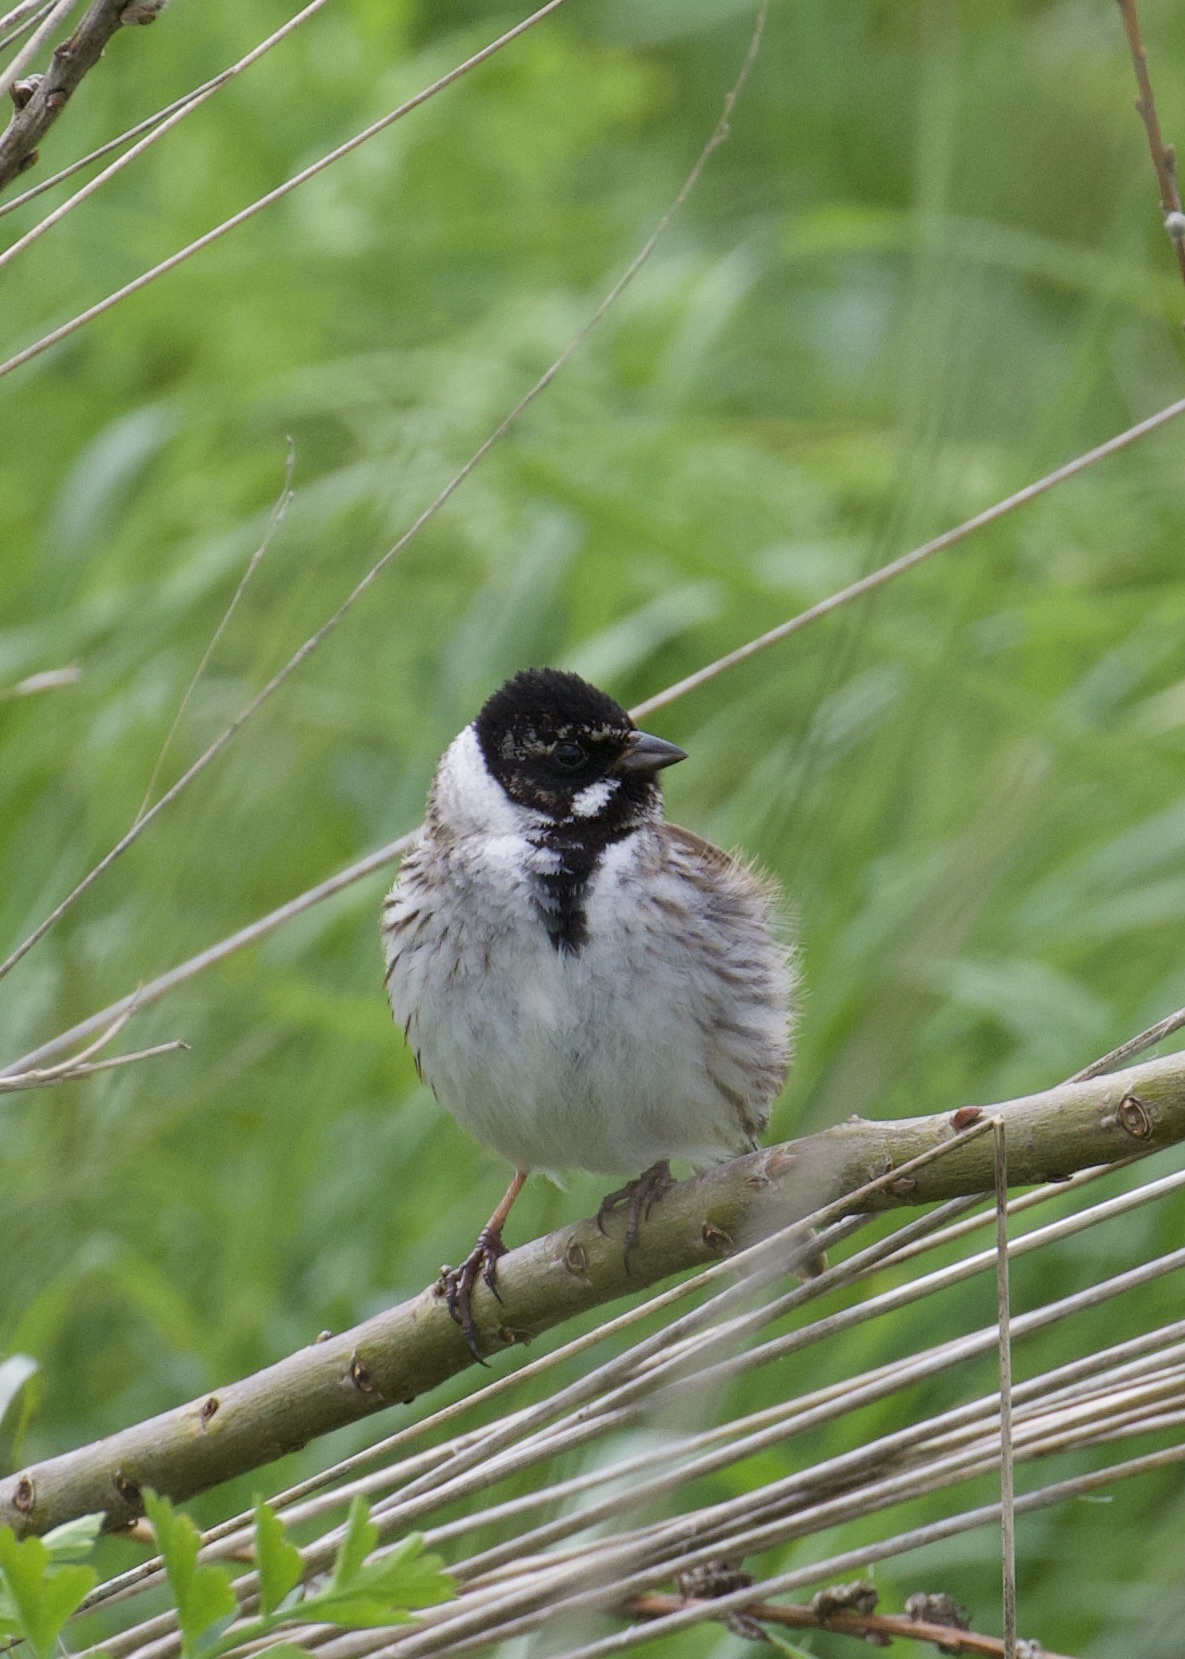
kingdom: Animalia
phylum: Chordata
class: Aves
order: Passeriformes
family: Emberizidae
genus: Emberiza
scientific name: Emberiza schoeniclus
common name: Reed bunting
